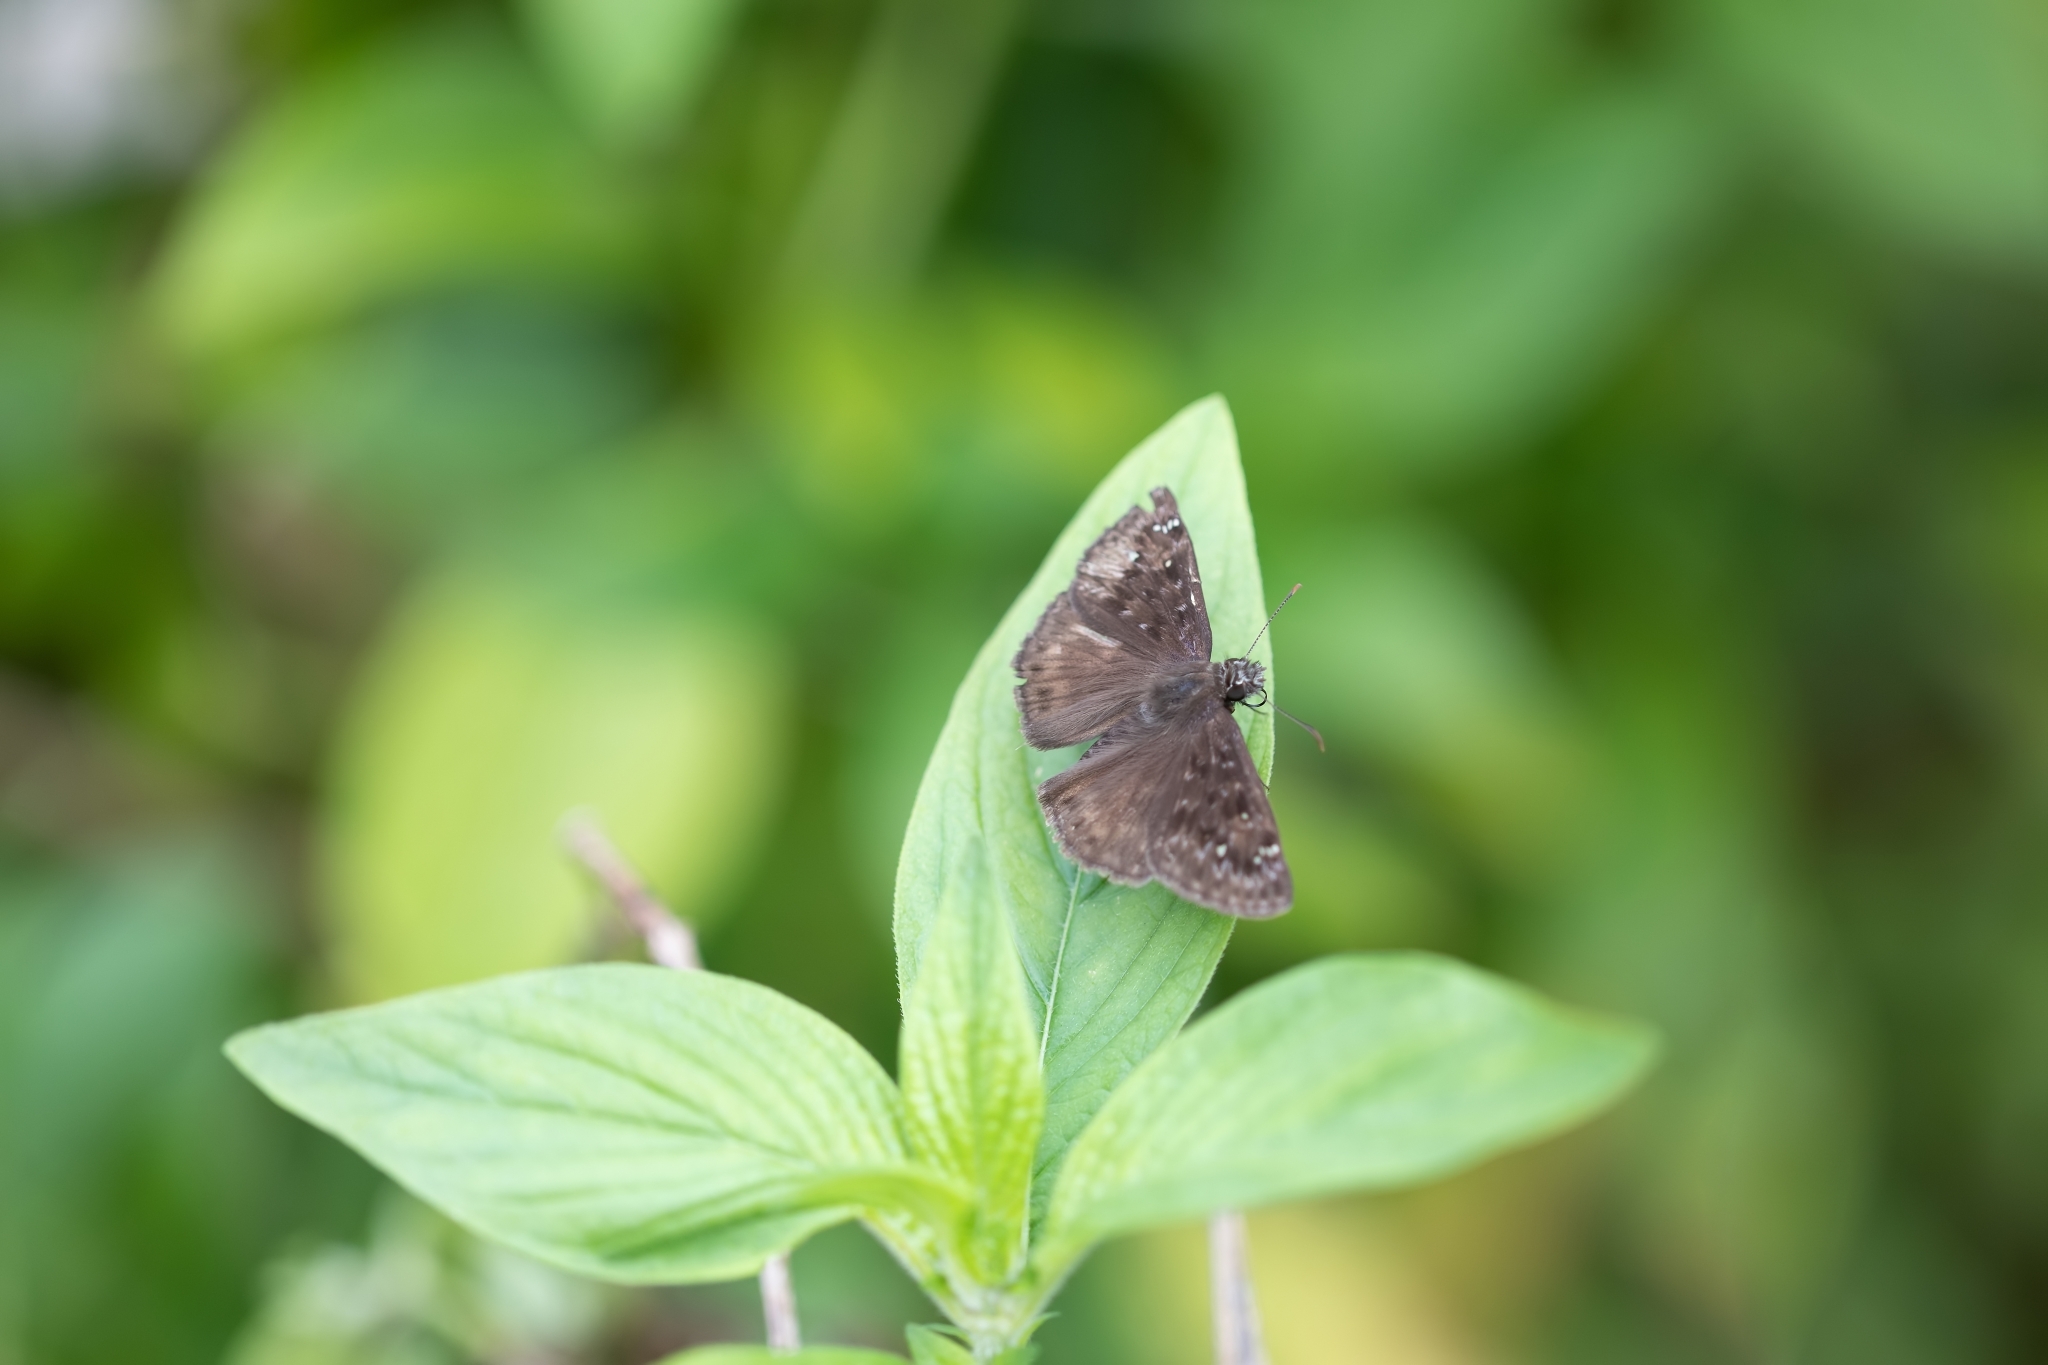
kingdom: Animalia
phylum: Arthropoda
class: Insecta
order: Lepidoptera
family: Hesperiidae
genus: Erynnis
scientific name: Erynnis horatius
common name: Horace's duskywing
